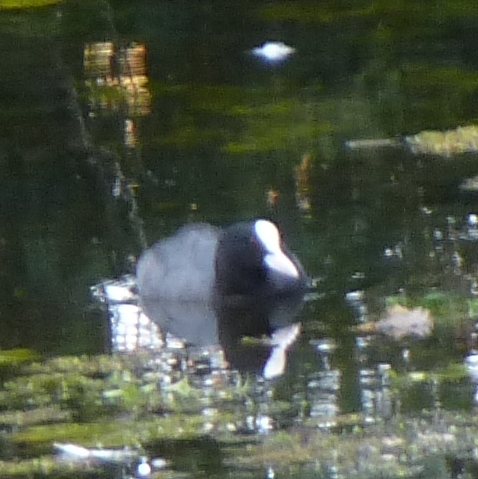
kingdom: Animalia
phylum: Chordata
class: Aves
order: Gruiformes
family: Rallidae
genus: Fulica
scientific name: Fulica atra
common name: Eurasian coot
